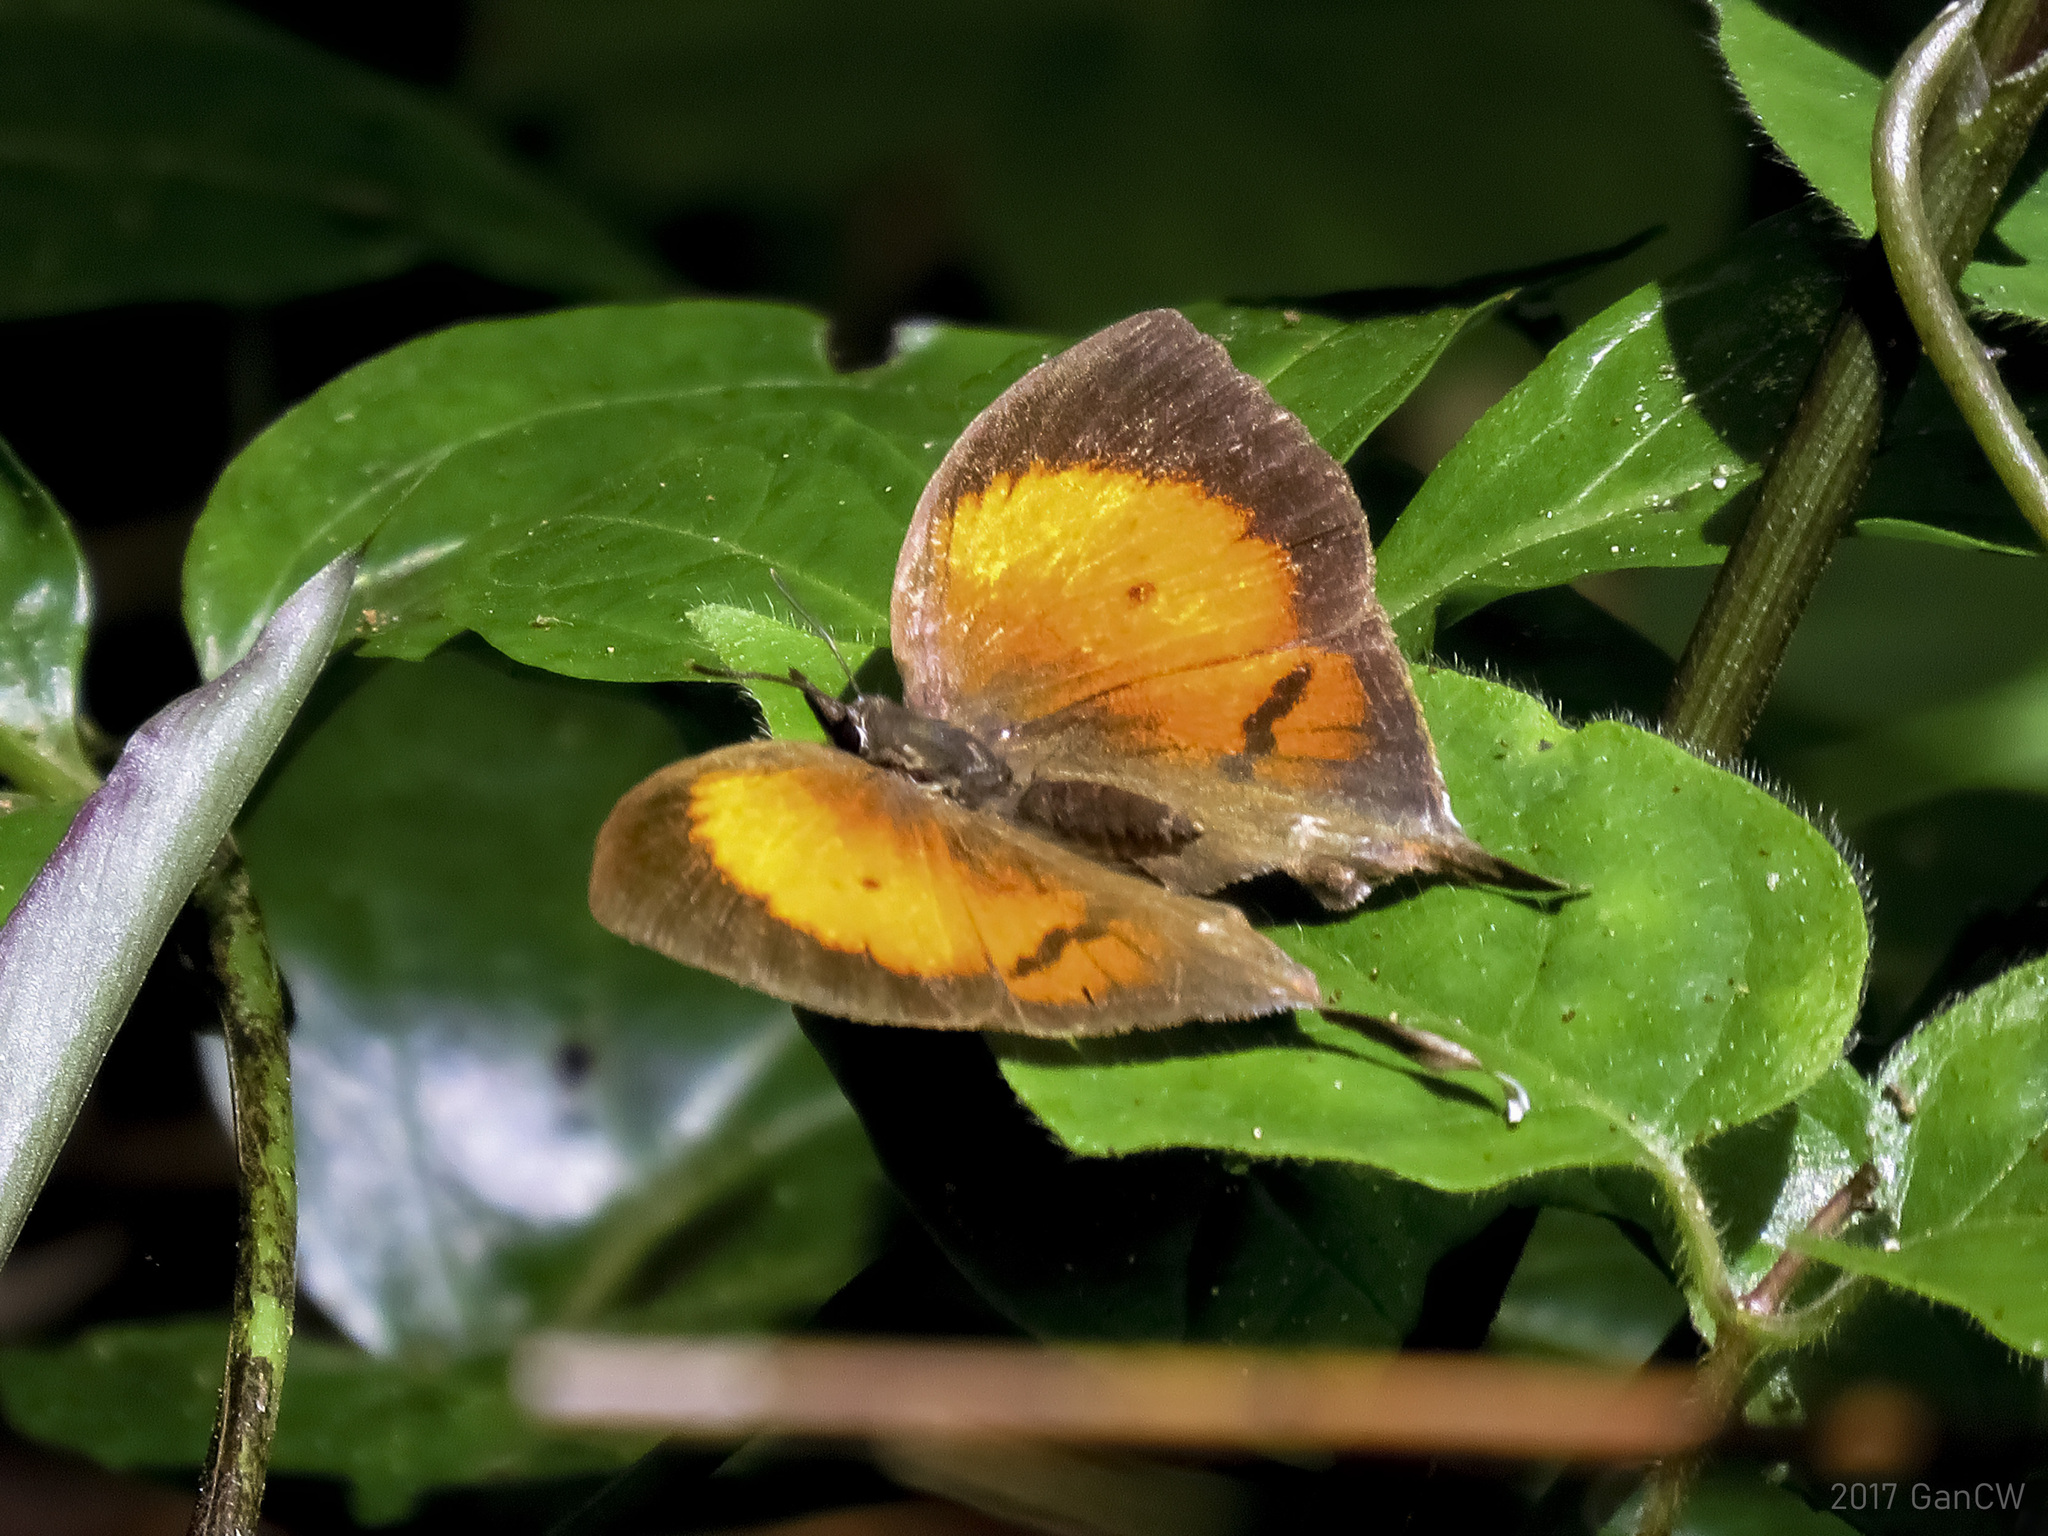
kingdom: Animalia
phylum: Arthropoda
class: Insecta
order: Lepidoptera
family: Lycaenidae
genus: Yasoda
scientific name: Yasoda pita
